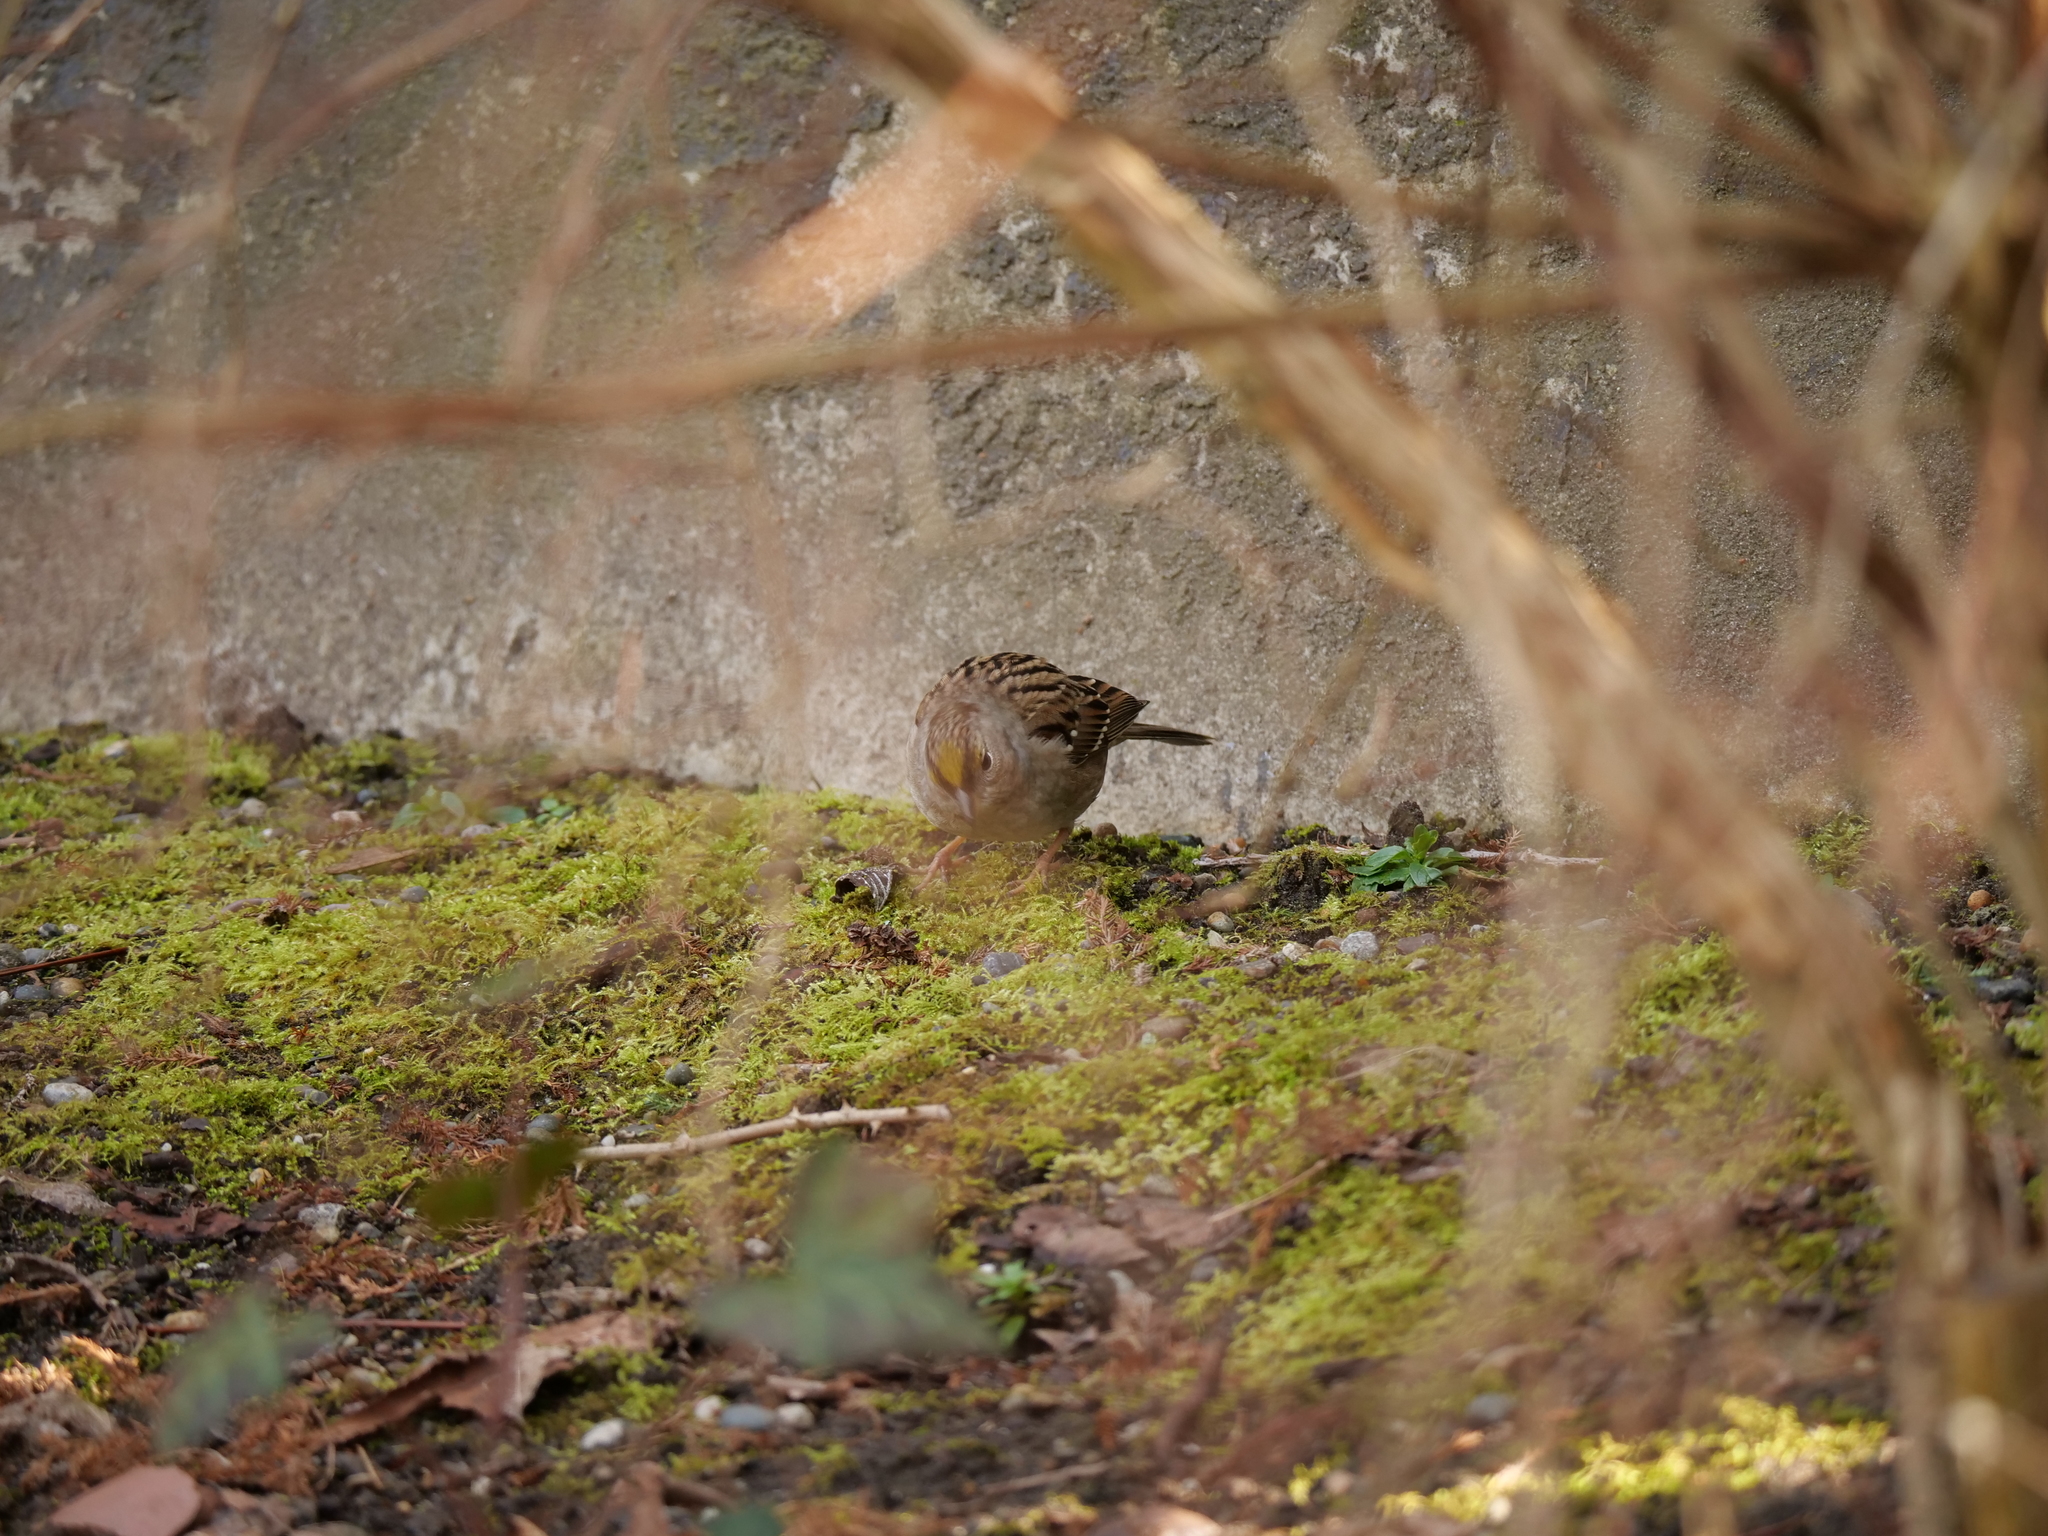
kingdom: Animalia
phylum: Chordata
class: Aves
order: Passeriformes
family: Passerellidae
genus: Zonotrichia
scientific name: Zonotrichia atricapilla
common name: Golden-crowned sparrow
